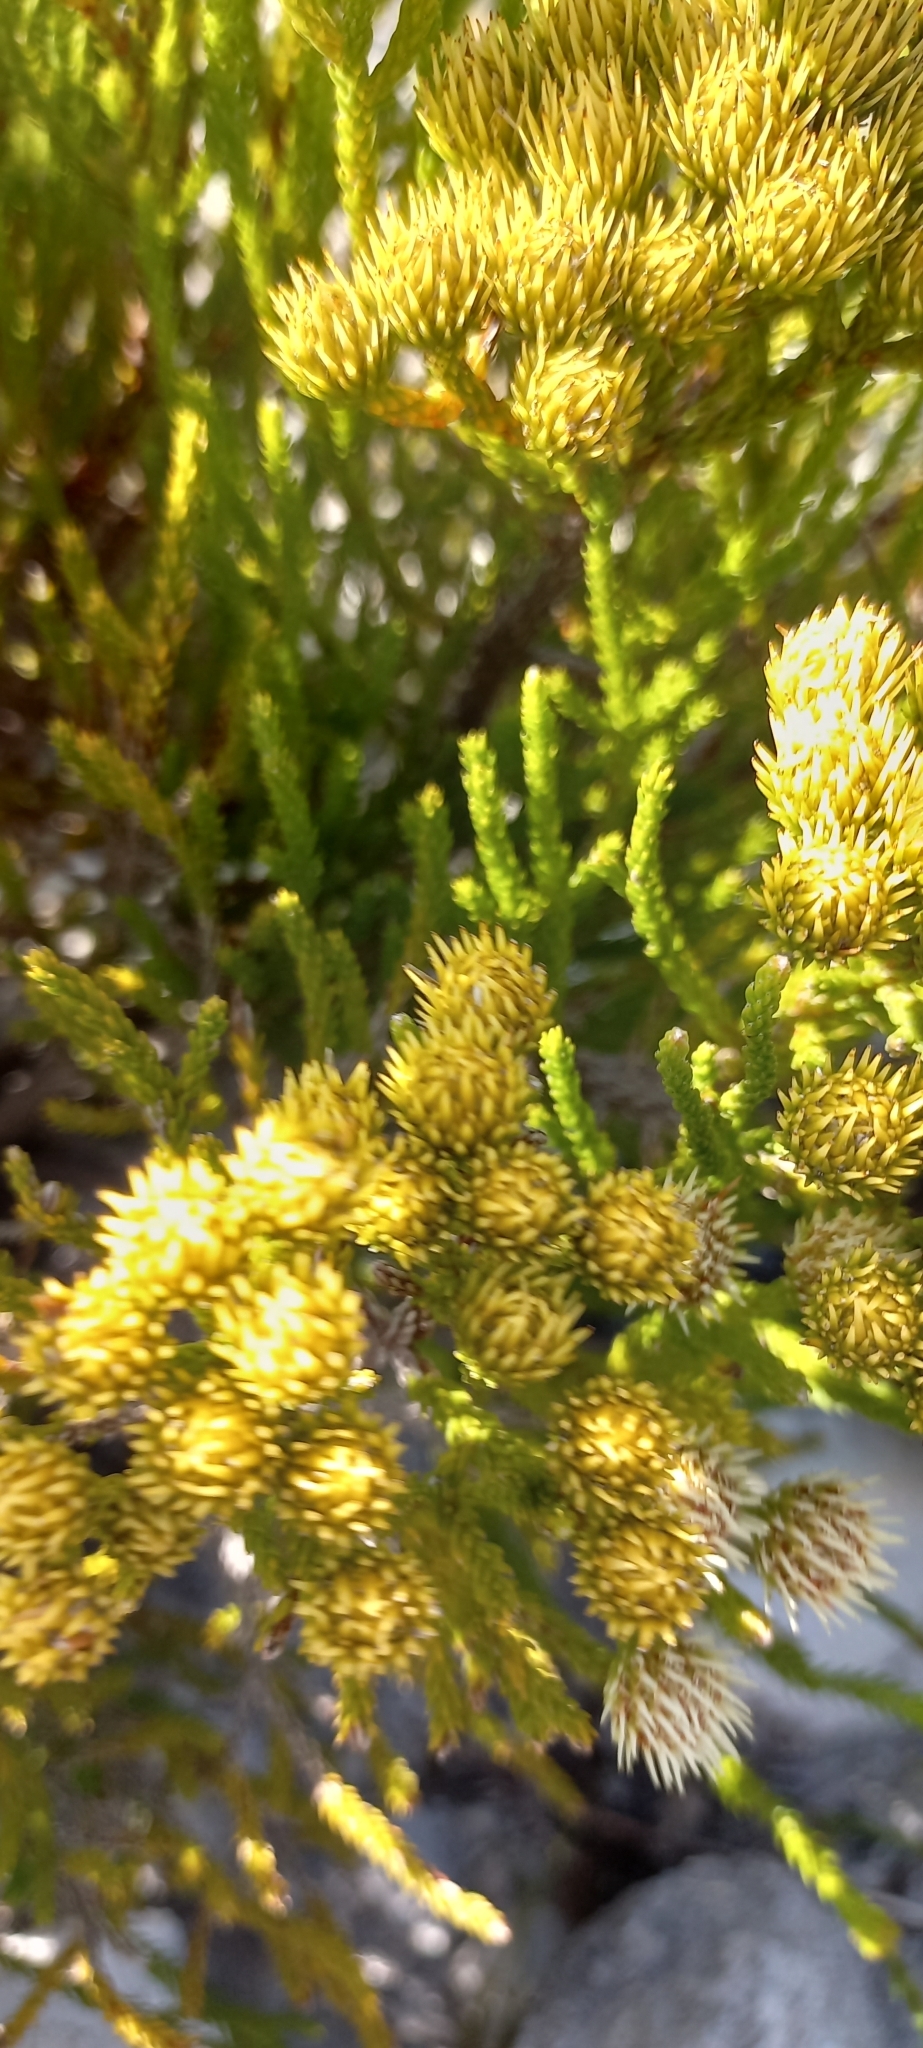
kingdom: Plantae
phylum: Tracheophyta
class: Magnoliopsida
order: Bruniales
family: Bruniaceae
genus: Brunia
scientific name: Brunia paleacea
